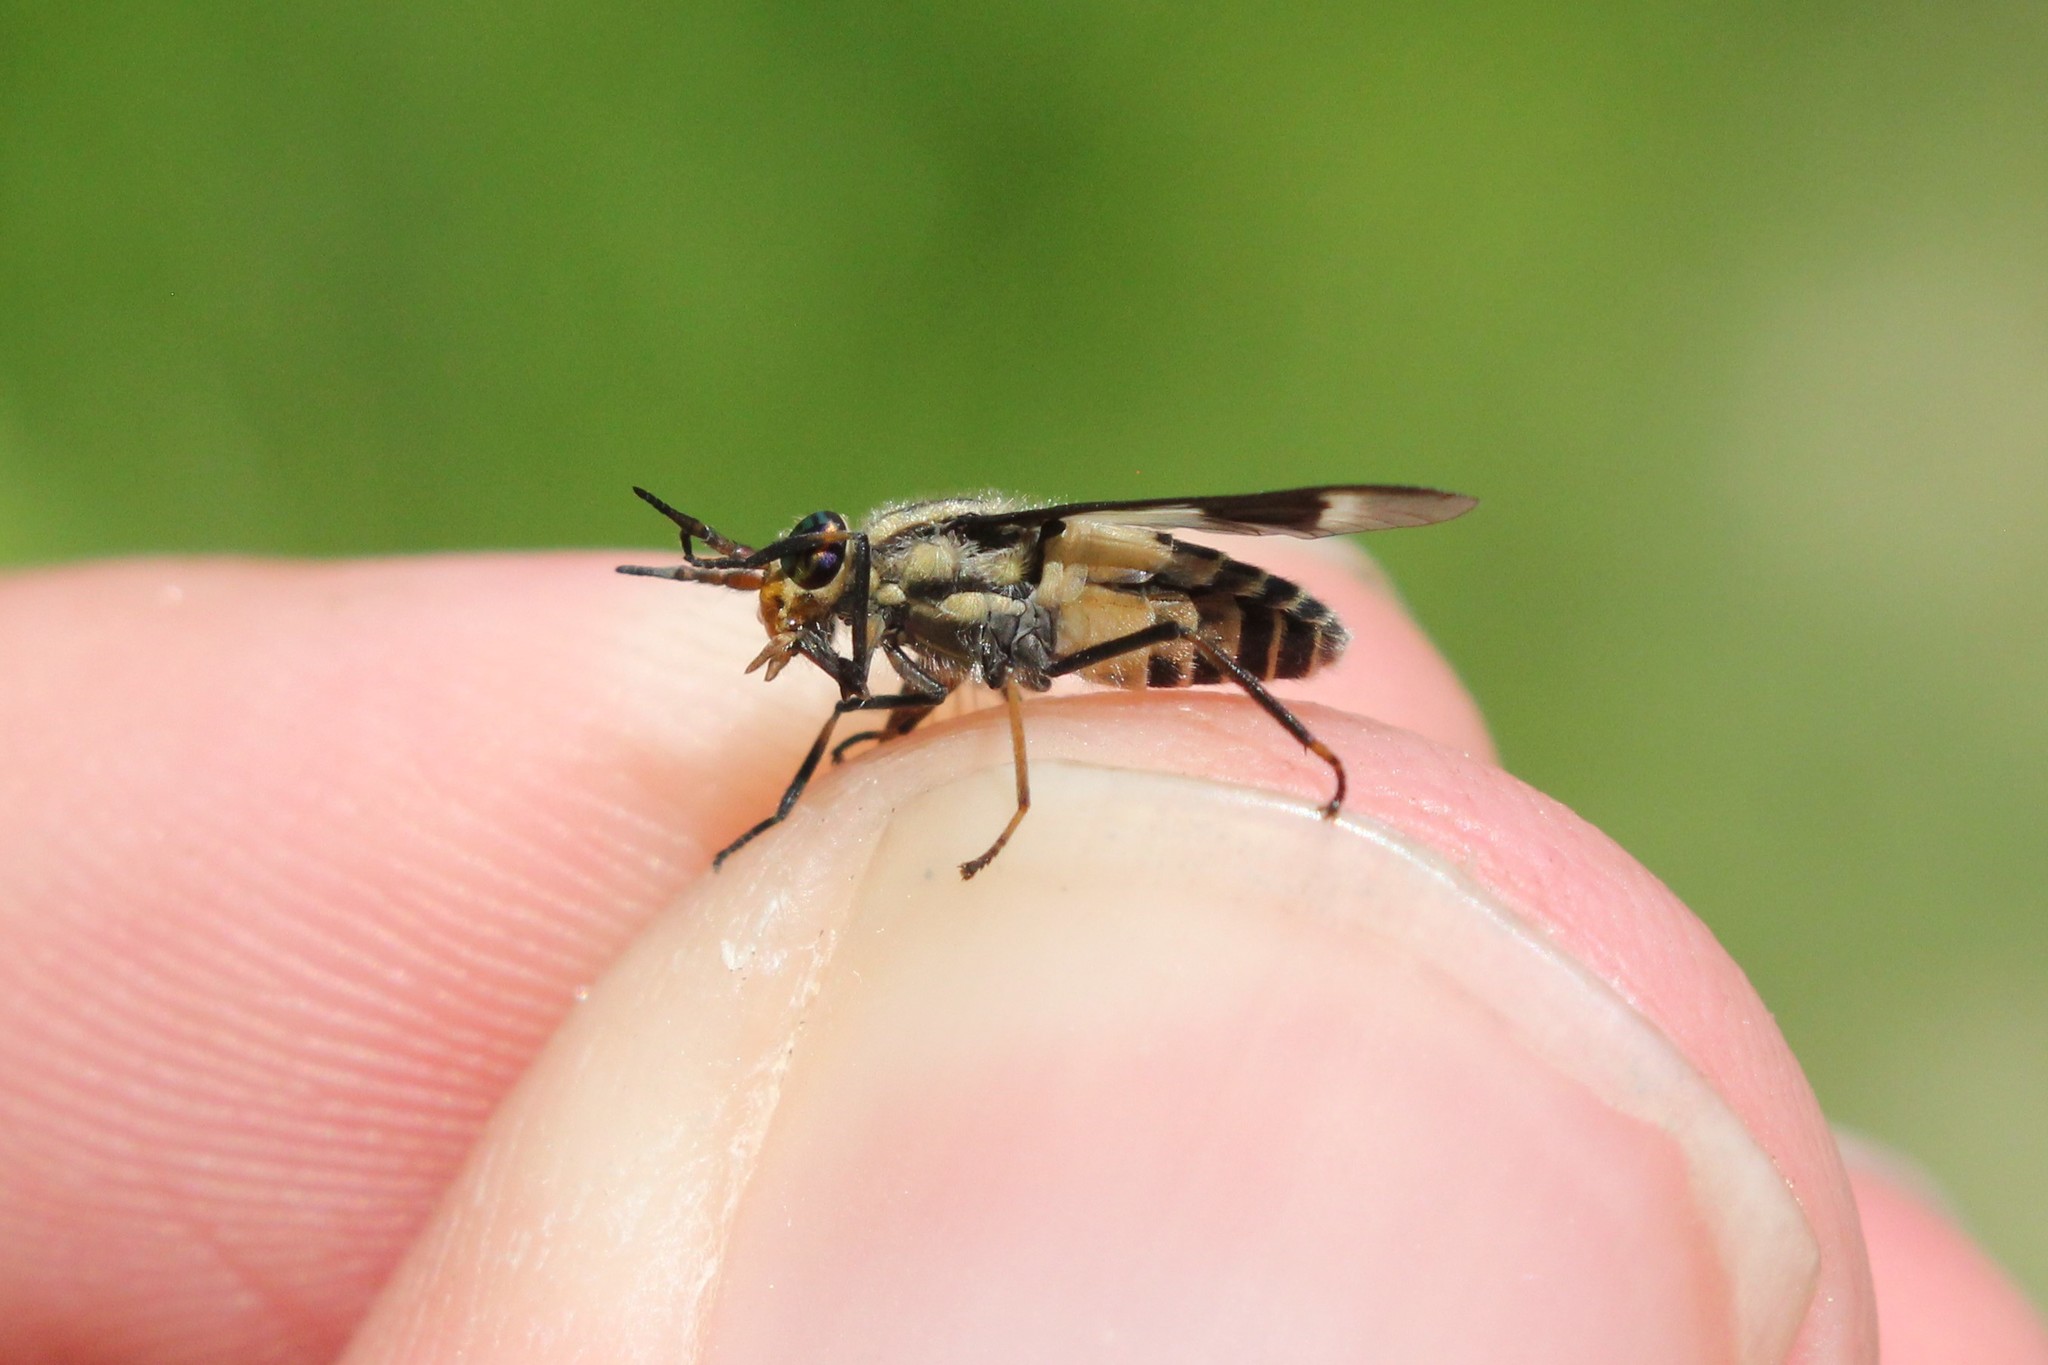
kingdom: Animalia
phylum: Arthropoda
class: Insecta
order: Diptera
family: Tabanidae
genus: Chrysops
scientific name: Chrysops callidus
